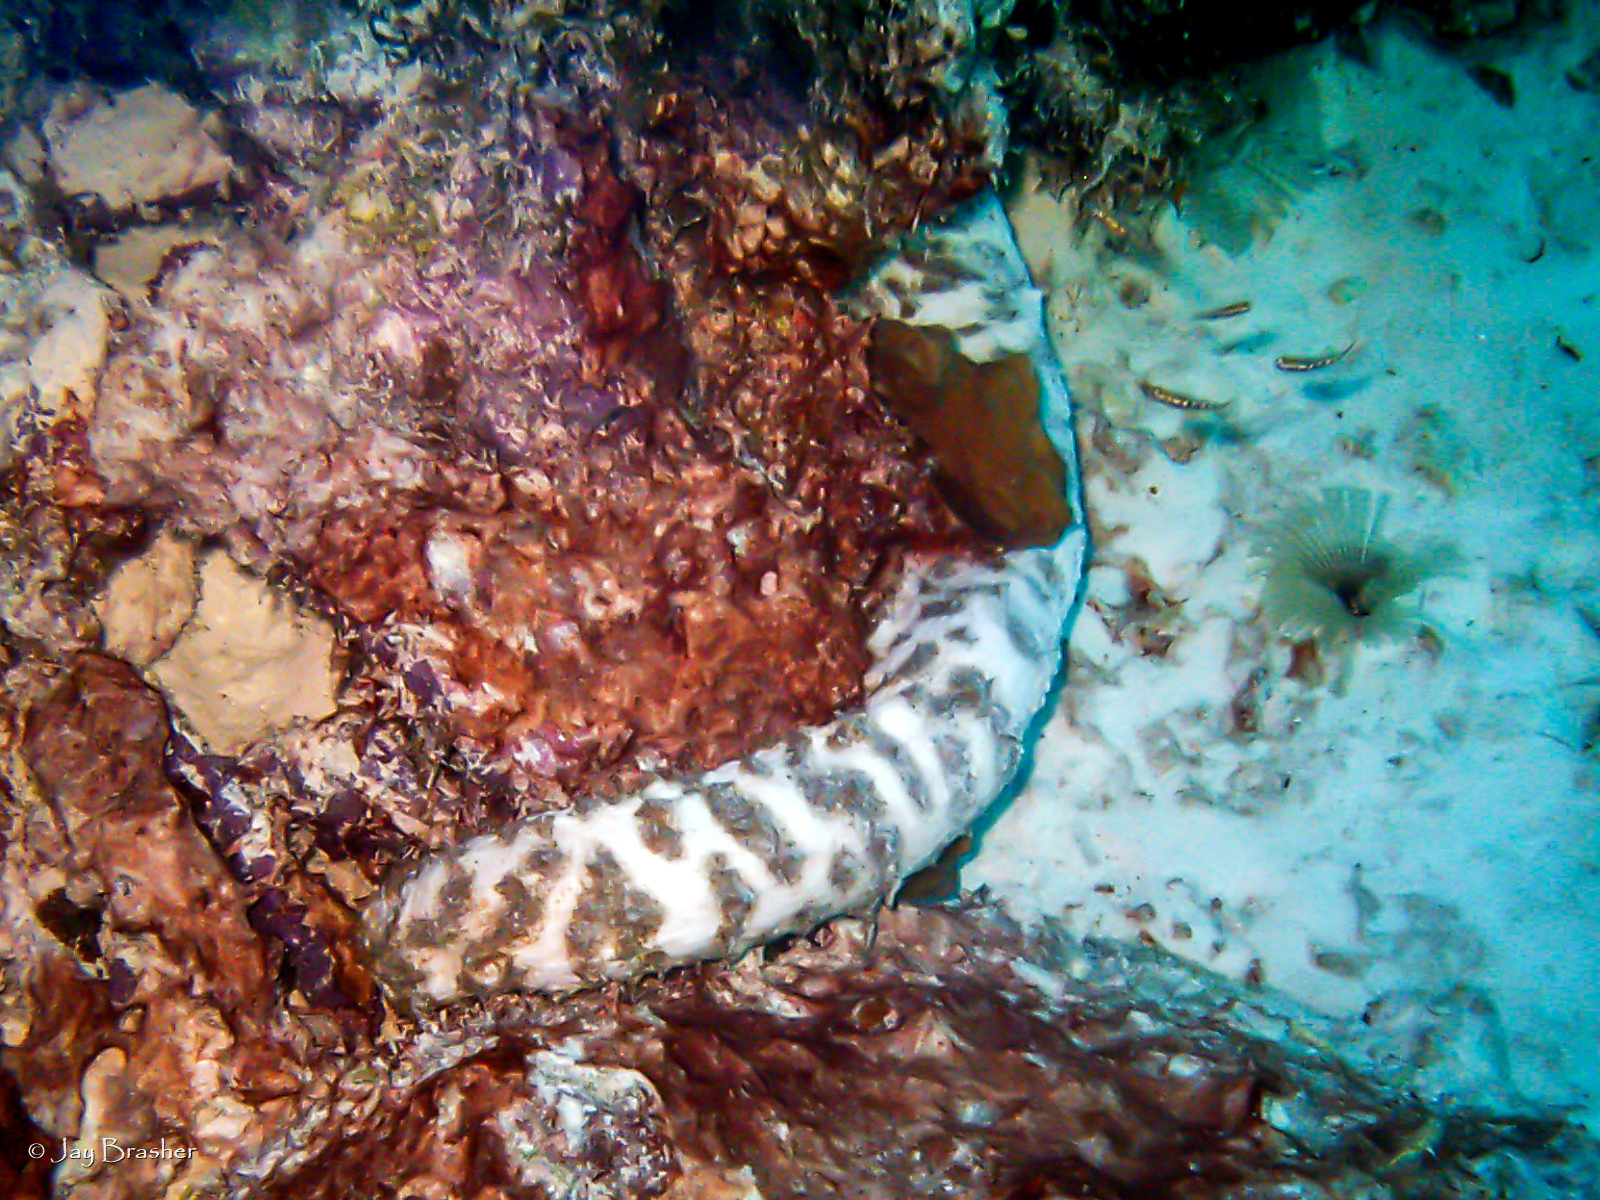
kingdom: Animalia
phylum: Echinodermata
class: Holothuroidea
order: Holothuriida
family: Holothuriidae
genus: Holothuria
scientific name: Holothuria thomasi
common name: Tiger tail sea cocumber
